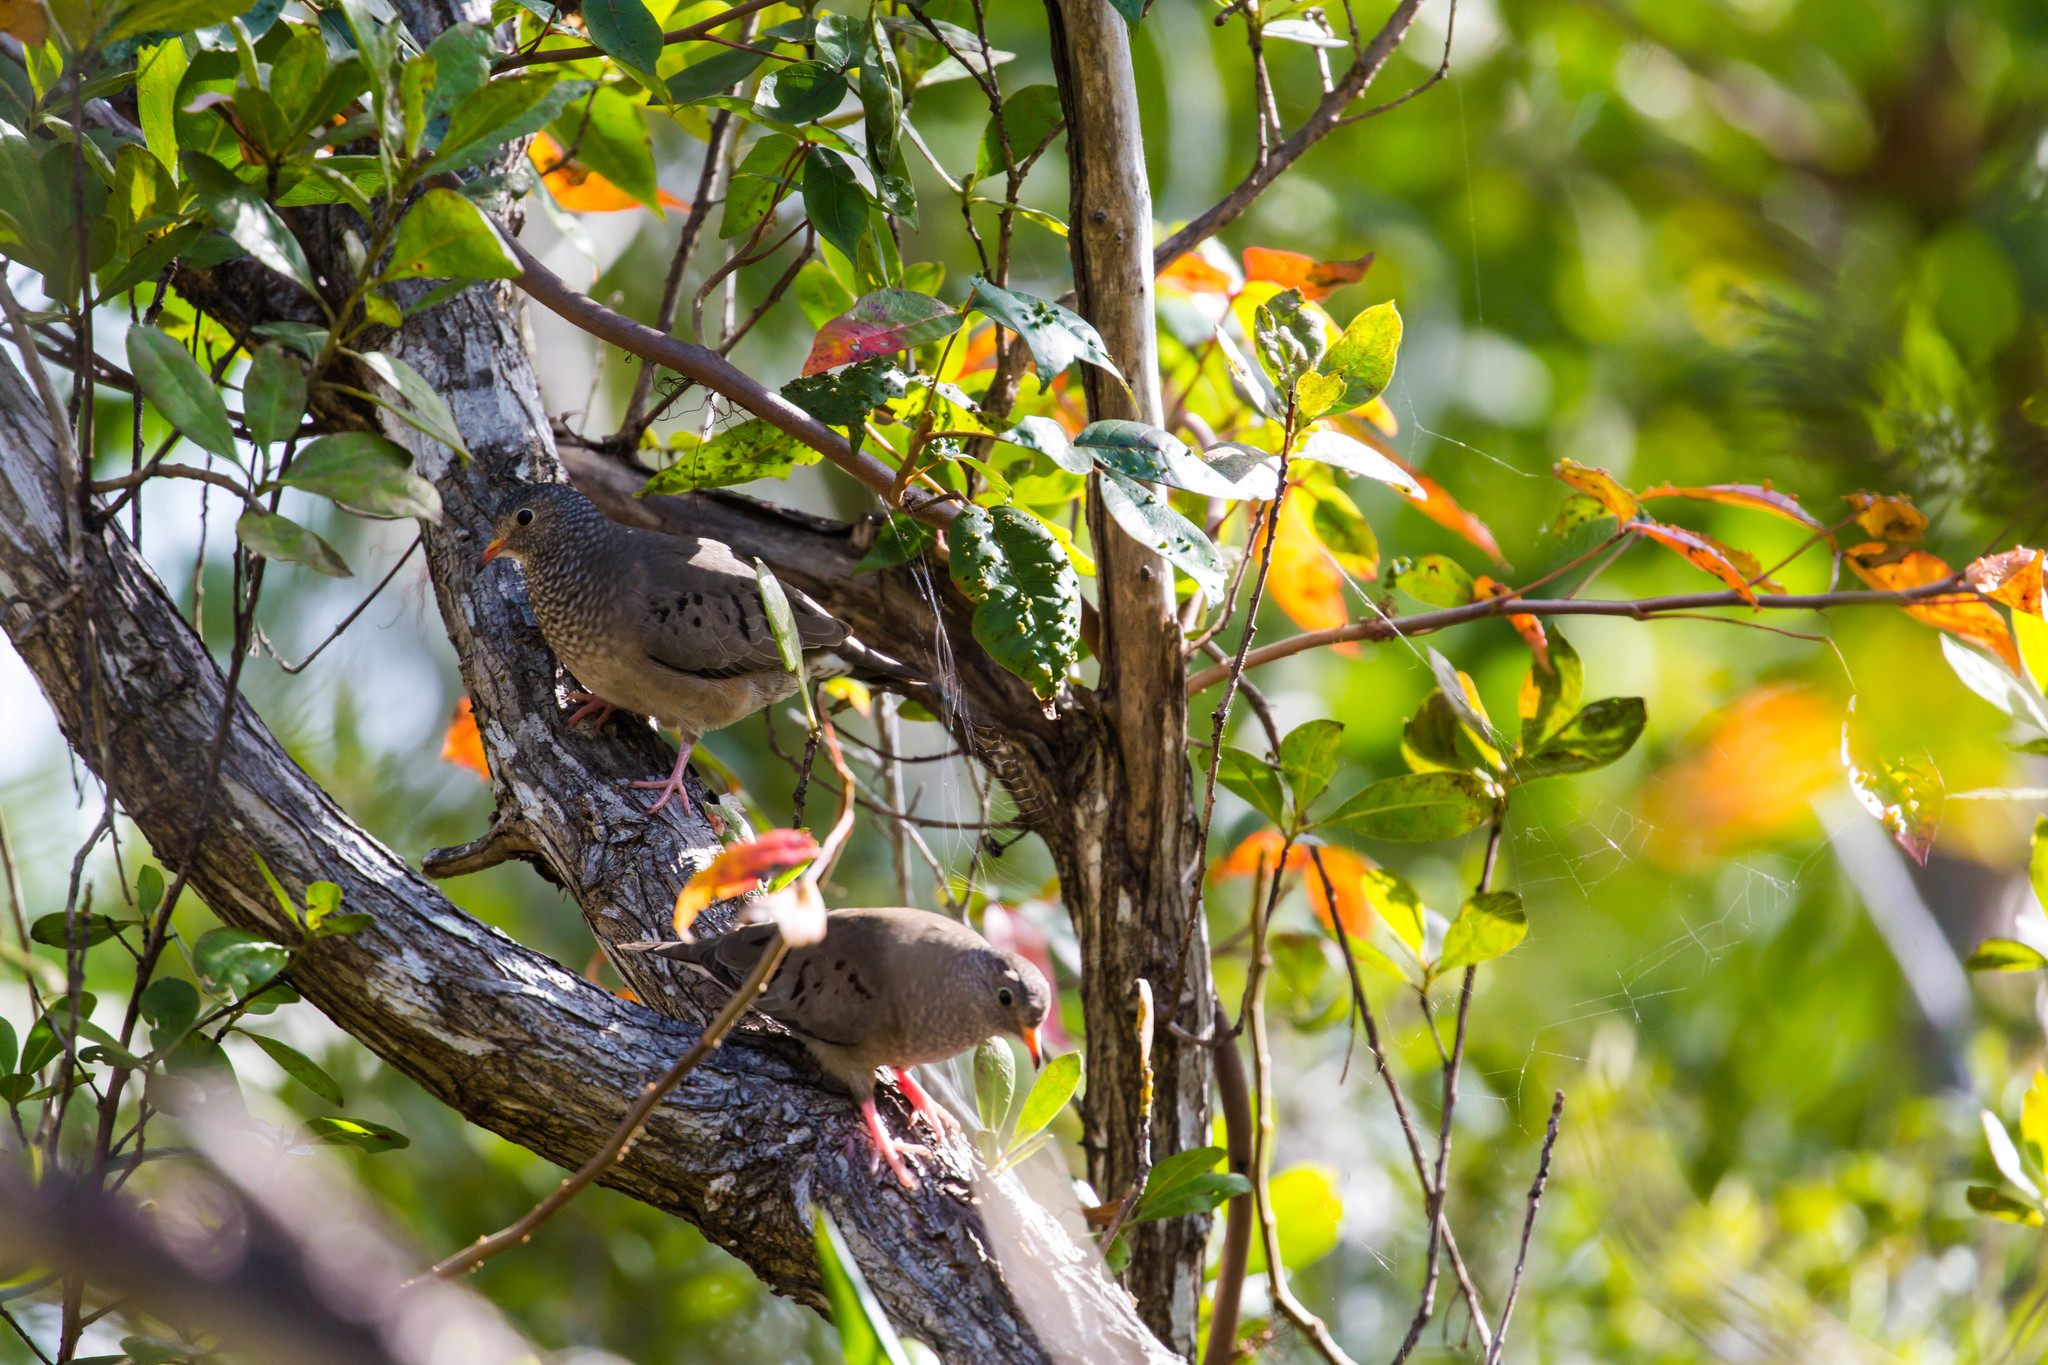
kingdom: Animalia
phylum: Chordata
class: Aves
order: Columbiformes
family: Columbidae
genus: Columbina
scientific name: Columbina passerina
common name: Common ground-dove
